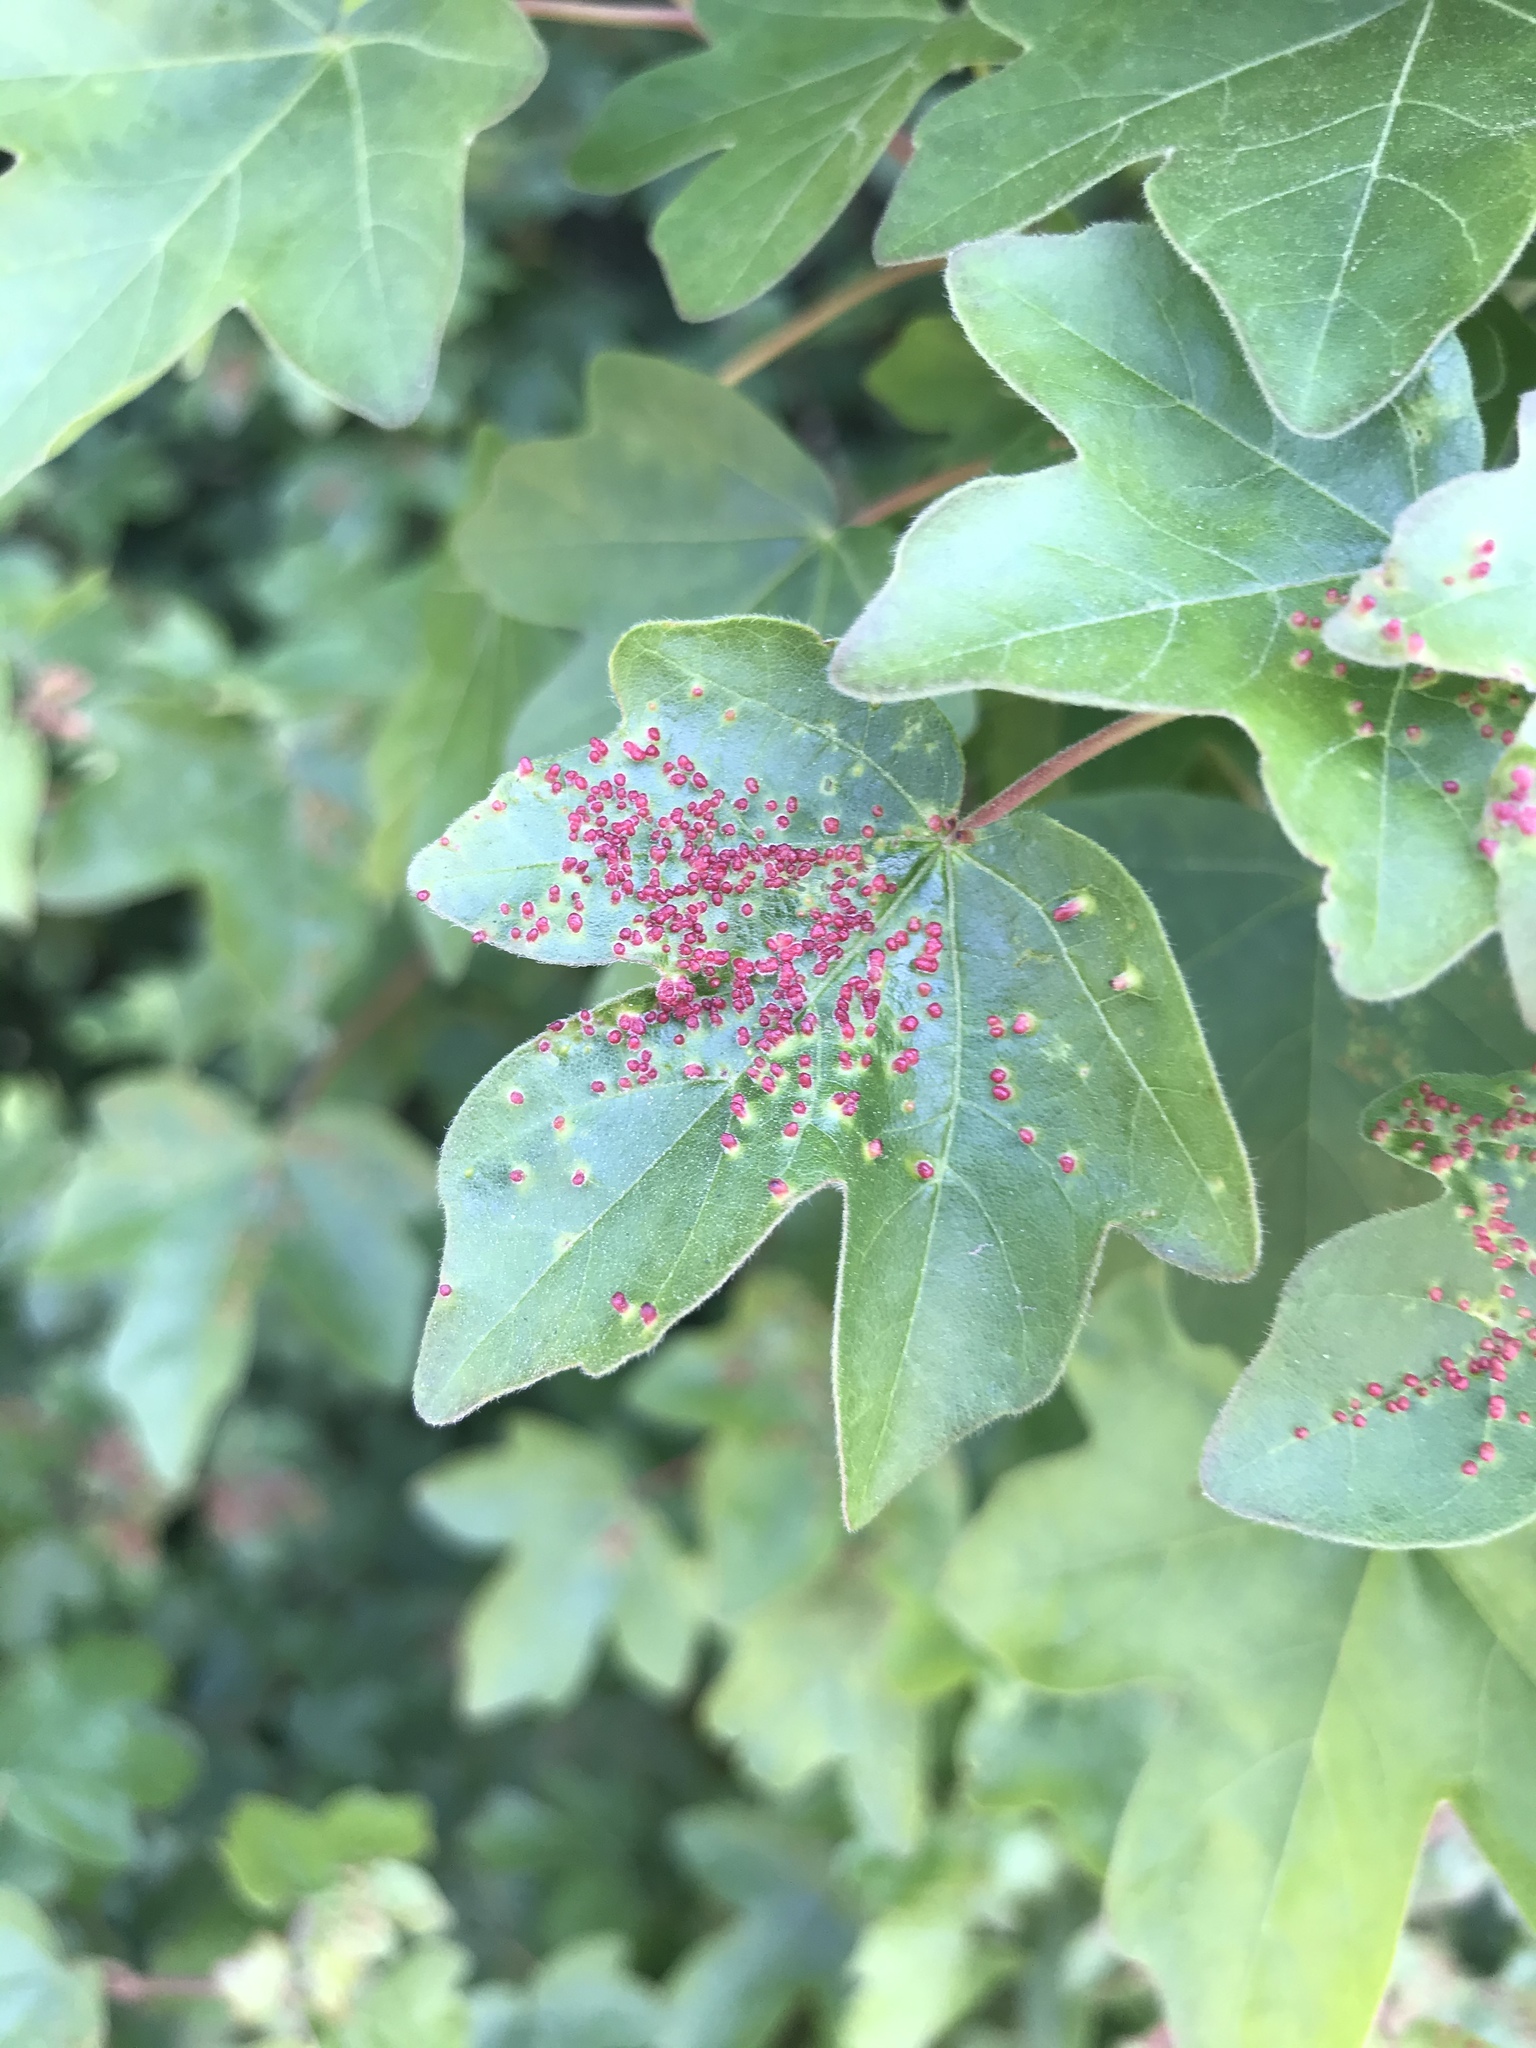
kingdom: Plantae
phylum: Tracheophyta
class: Magnoliopsida
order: Sapindales
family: Sapindaceae
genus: Acer
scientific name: Acer campestre
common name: Field maple
